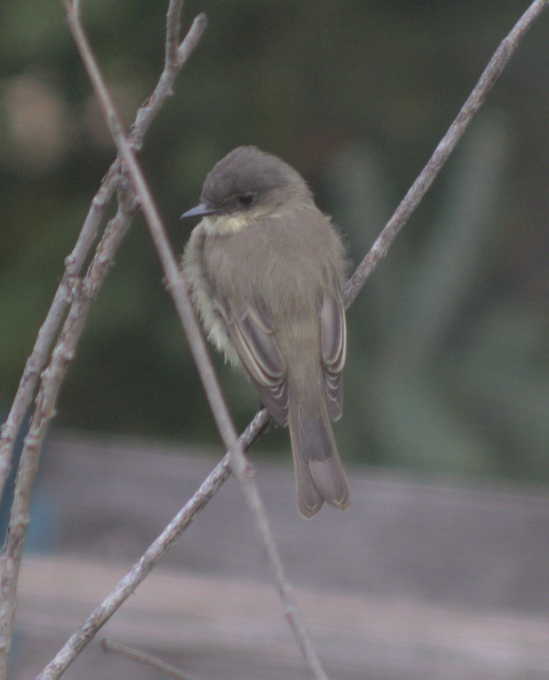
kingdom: Animalia
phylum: Chordata
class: Aves
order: Passeriformes
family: Tyrannidae
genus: Sayornis
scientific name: Sayornis phoebe
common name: Eastern phoebe
